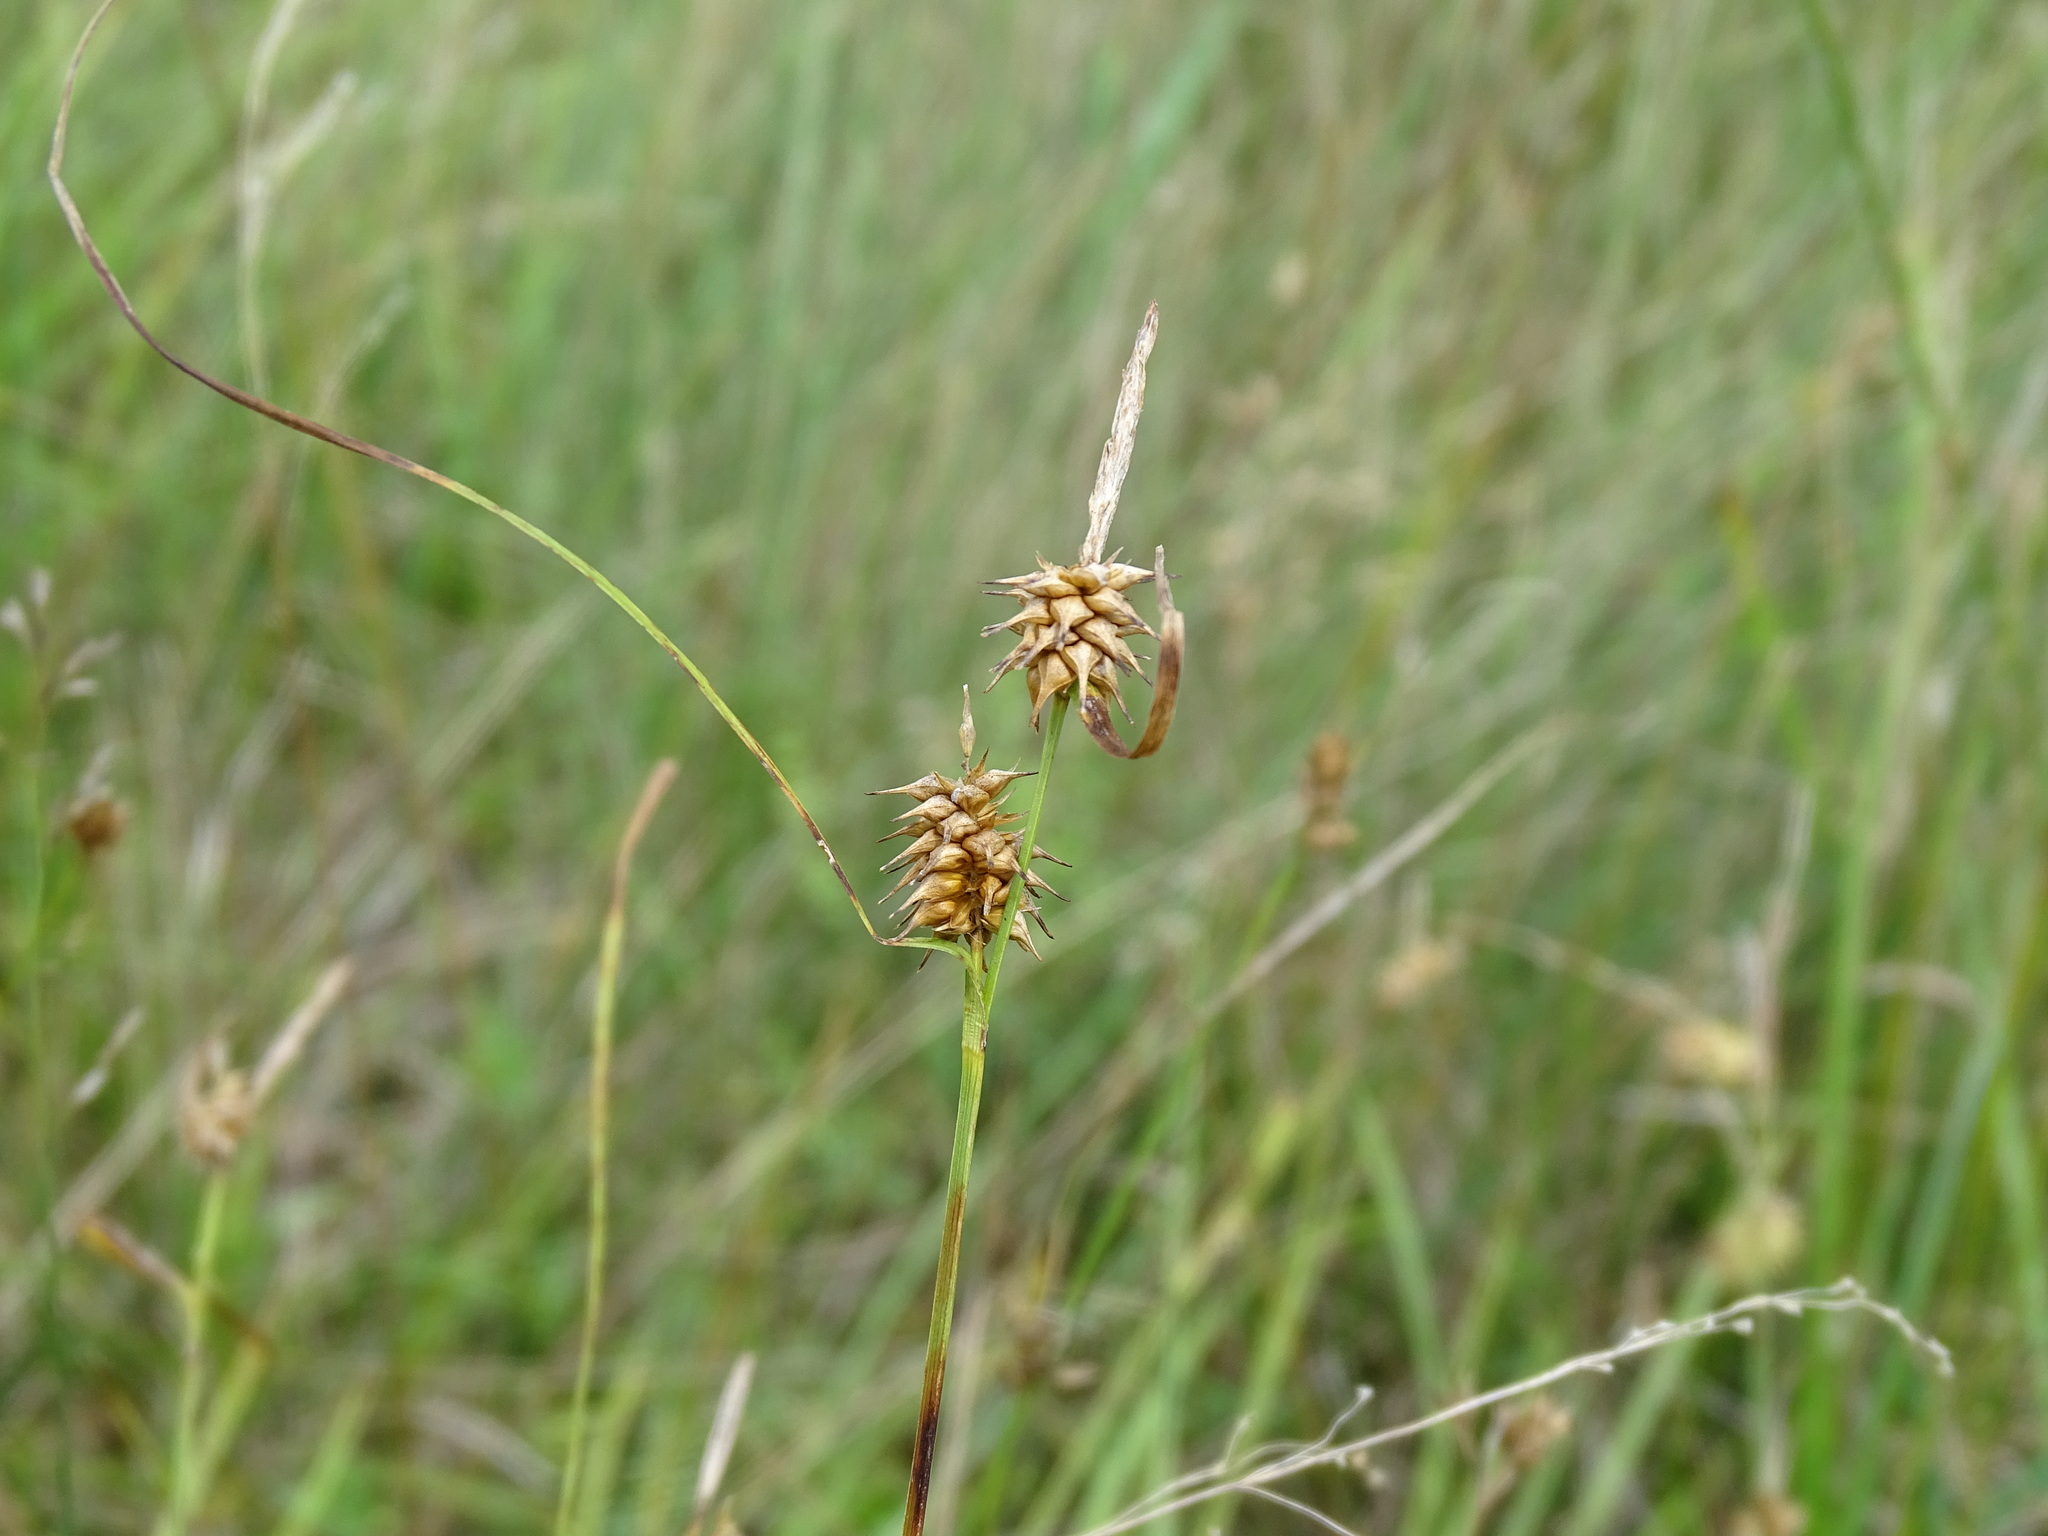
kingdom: Plantae
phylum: Tracheophyta
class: Liliopsida
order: Poales
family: Cyperaceae
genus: Carex
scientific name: Carex flava
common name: Large yellow-sedge
